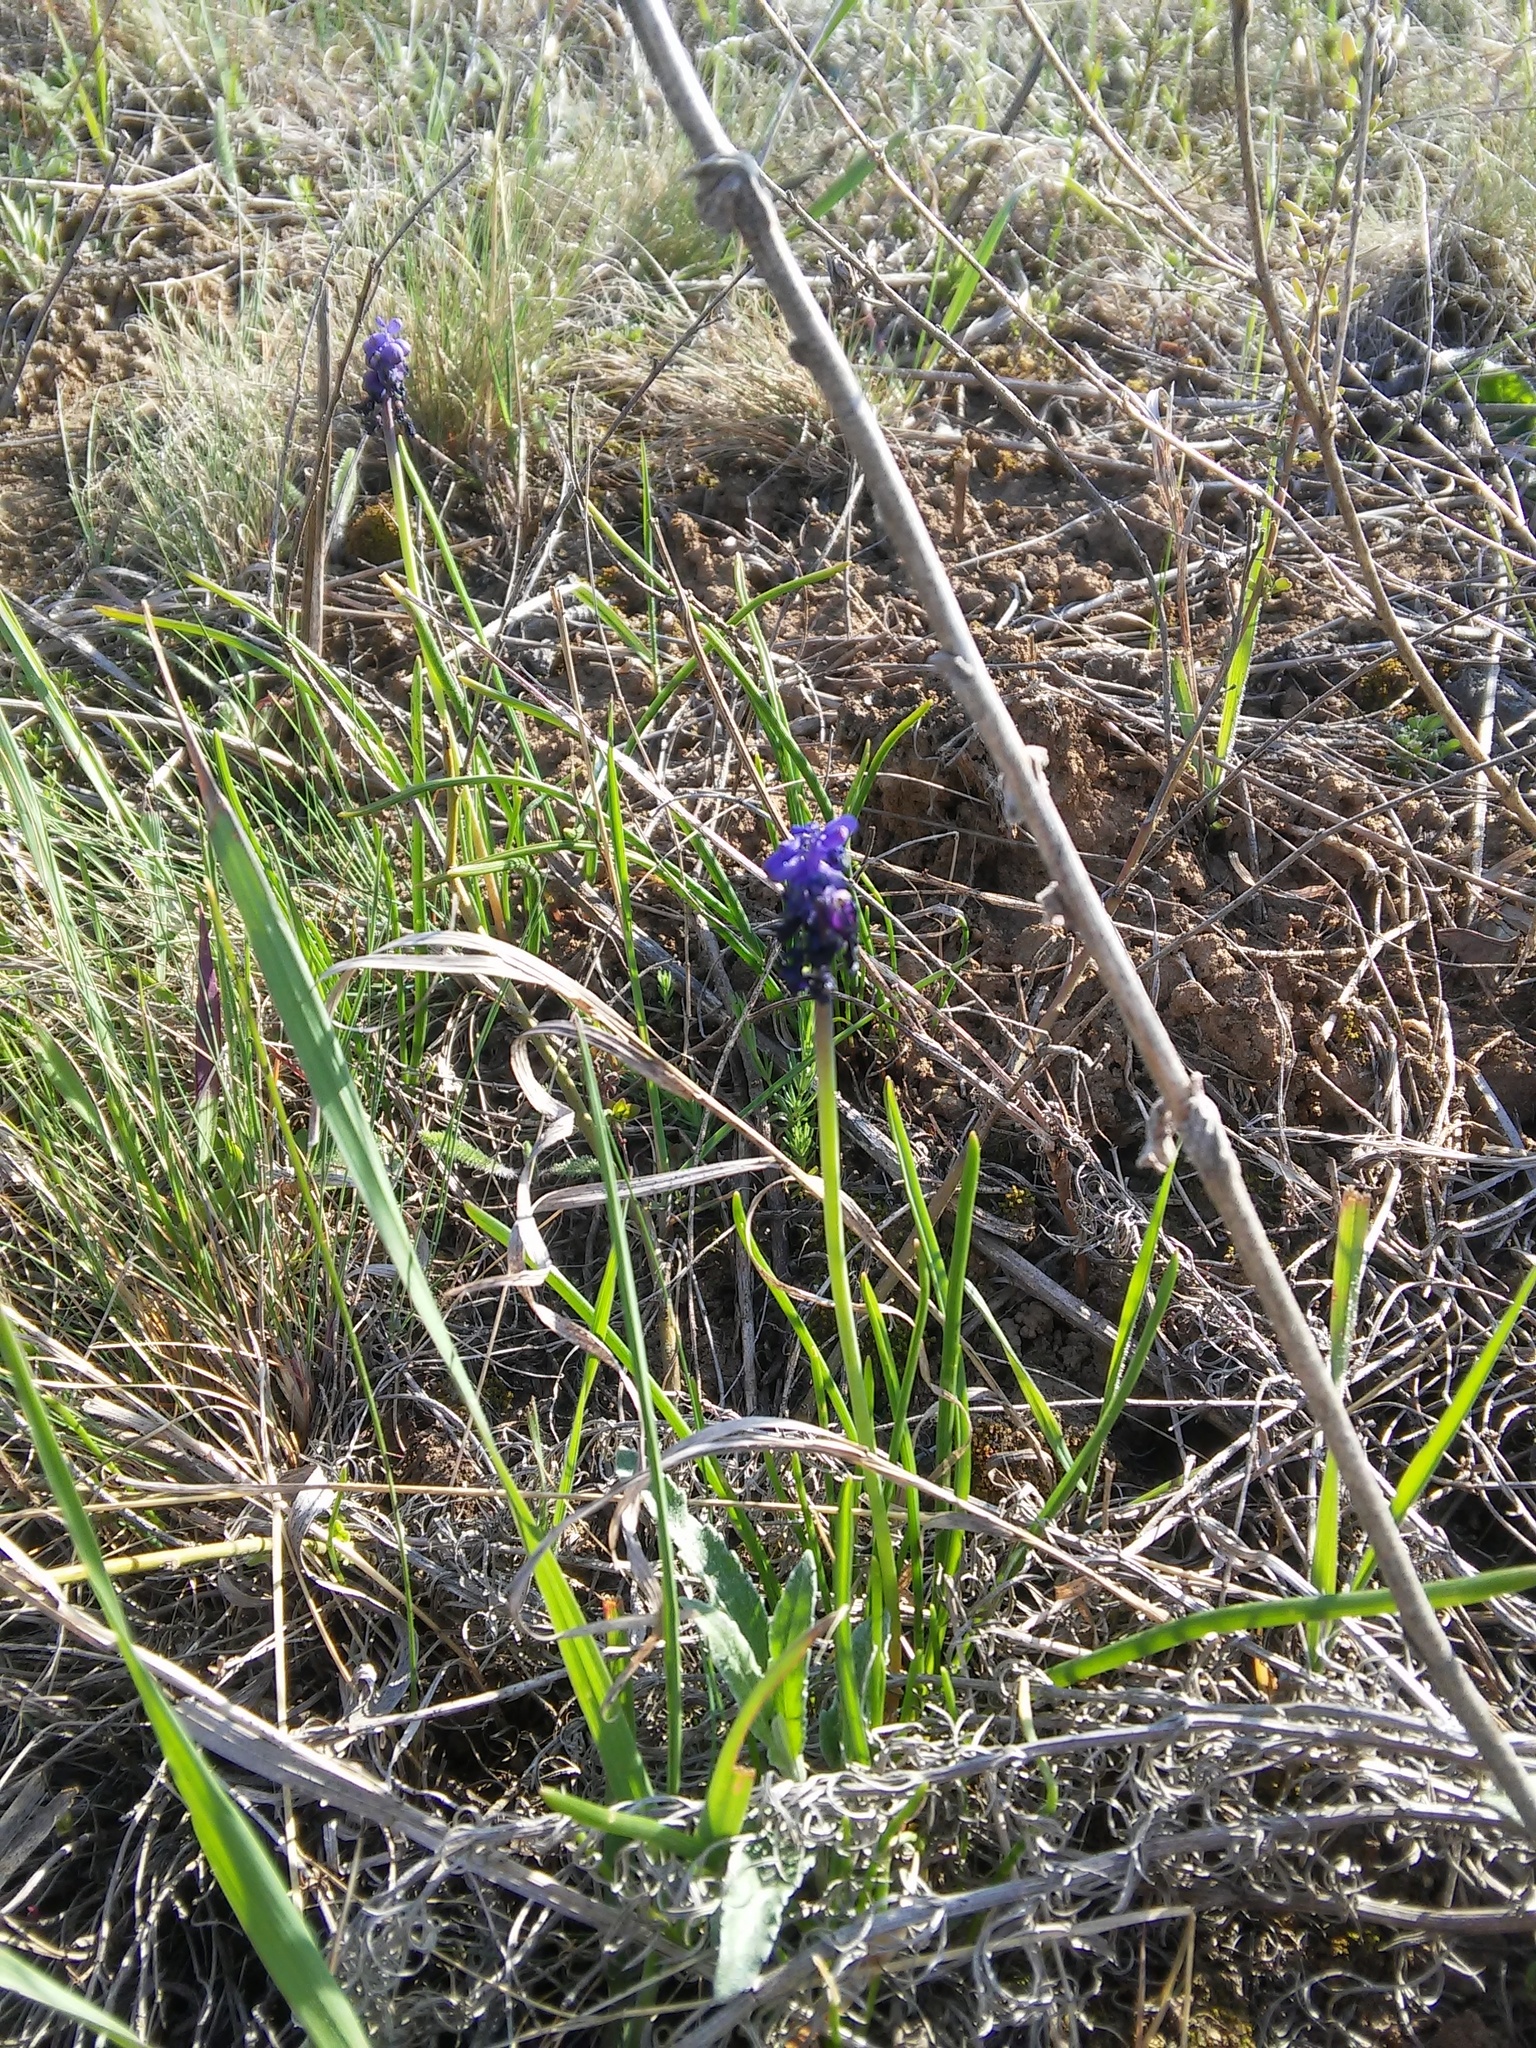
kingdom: Plantae
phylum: Tracheophyta
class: Liliopsida
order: Asparagales
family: Asparagaceae
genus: Muscari
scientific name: Muscari neglectum
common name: Grape-hyacinth
